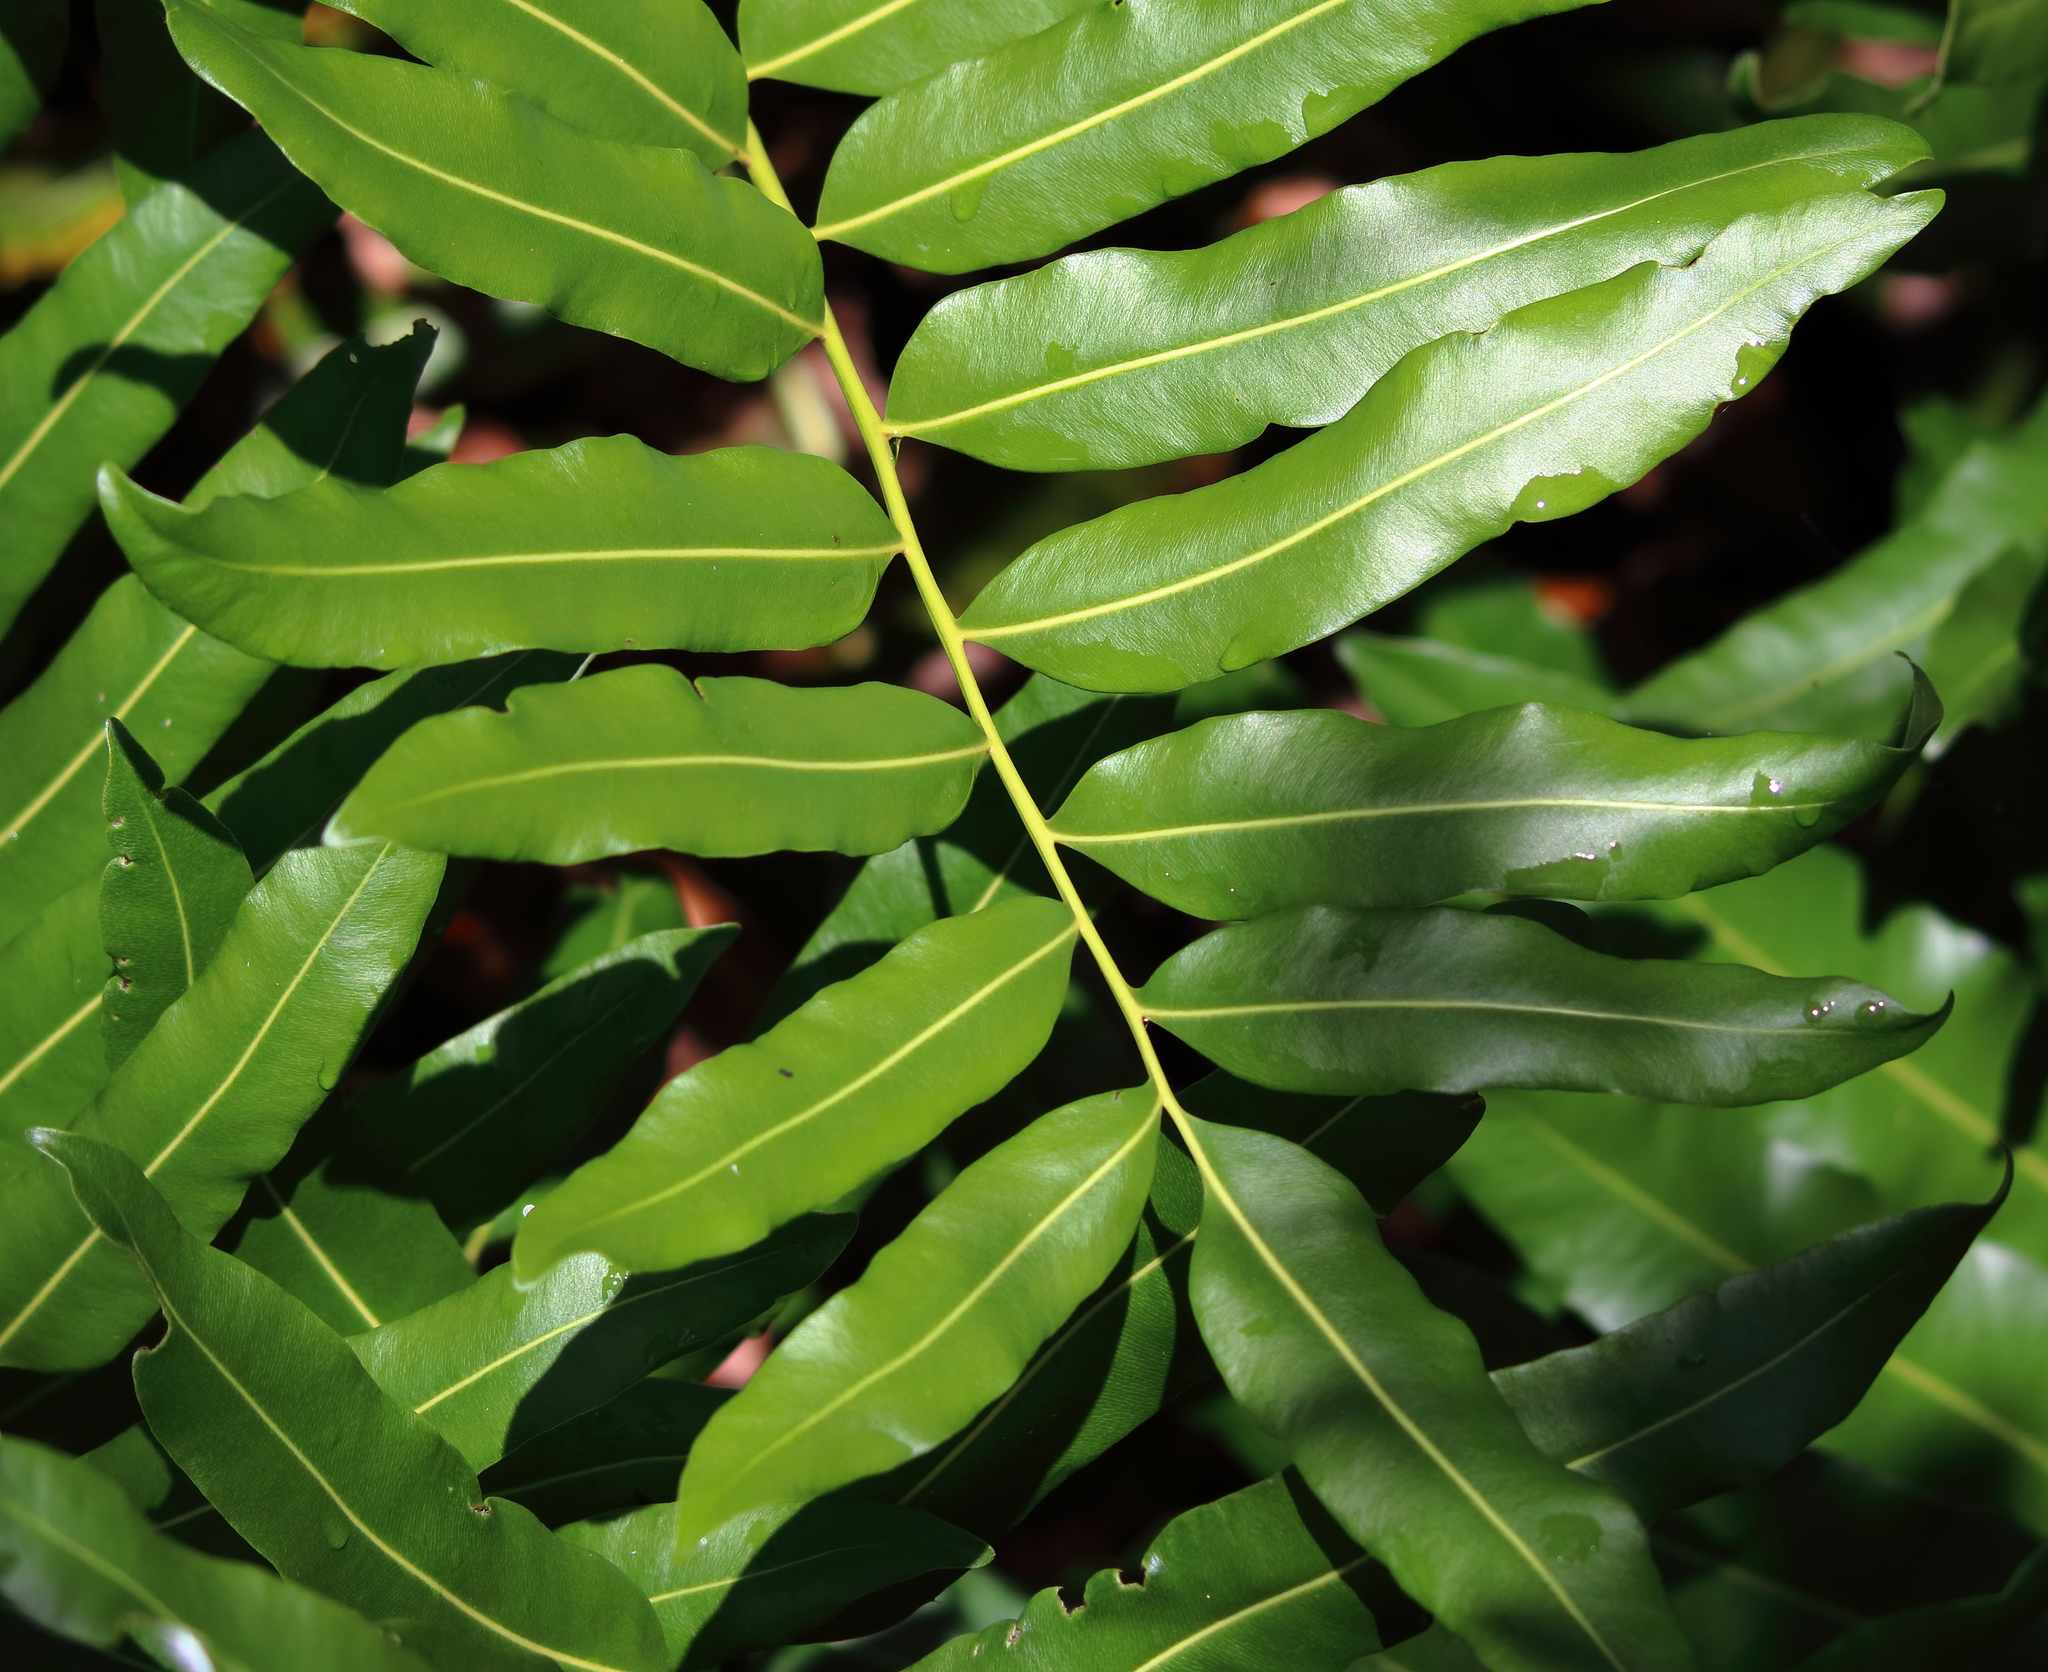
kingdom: Plantae
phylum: Tracheophyta
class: Polypodiopsida
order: Polypodiales
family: Pteridaceae
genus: Acrostichum
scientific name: Acrostichum danaeifolium
